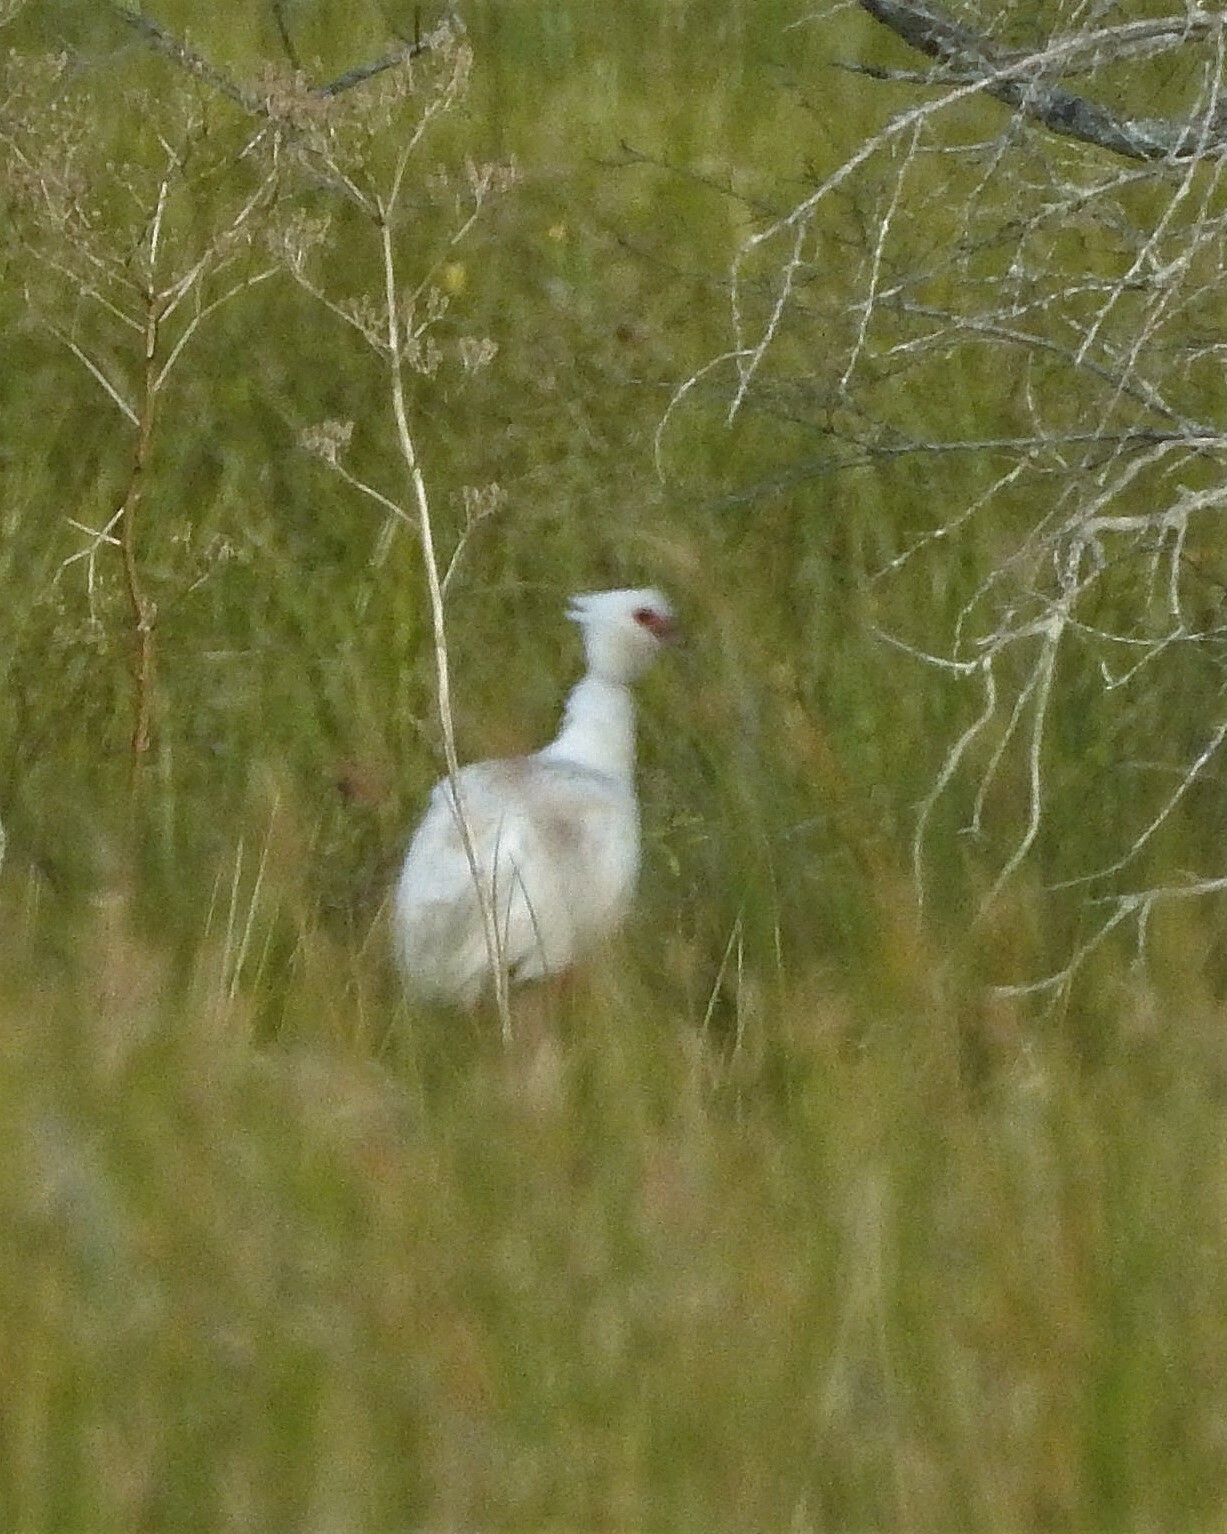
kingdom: Animalia
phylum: Chordata
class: Aves
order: Anseriformes
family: Anhimidae
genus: Chauna
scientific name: Chauna torquata
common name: Southern screamer
